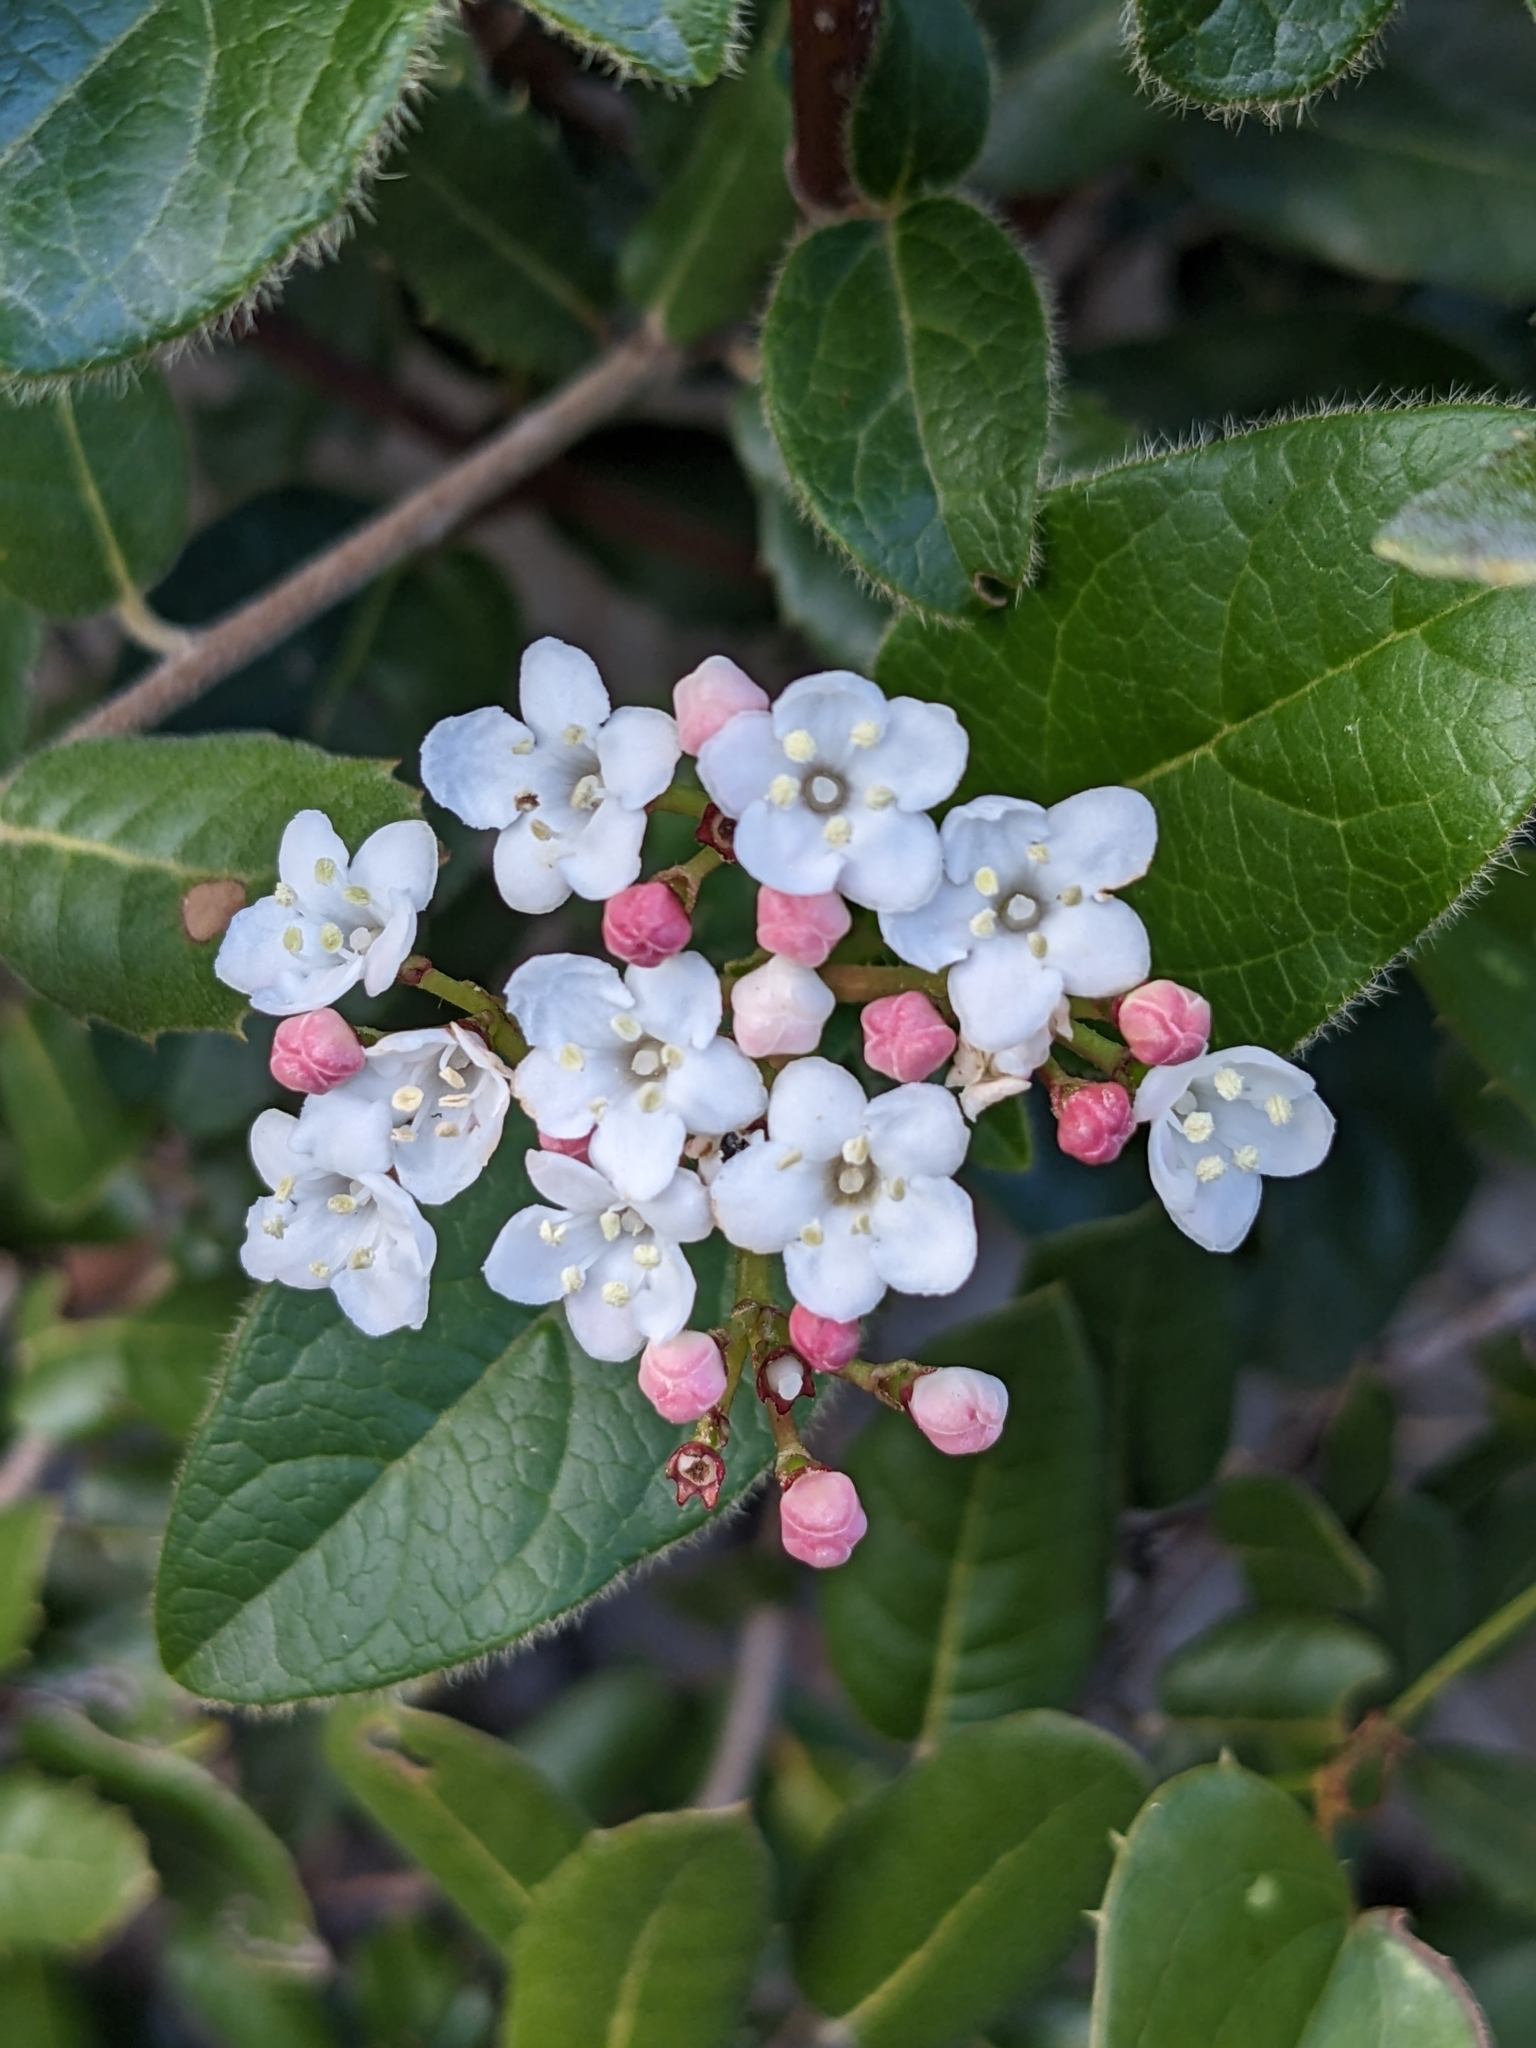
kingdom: Plantae
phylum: Tracheophyta
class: Magnoliopsida
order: Dipsacales
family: Viburnaceae
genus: Viburnum
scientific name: Viburnum tinus
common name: Laurustinus
